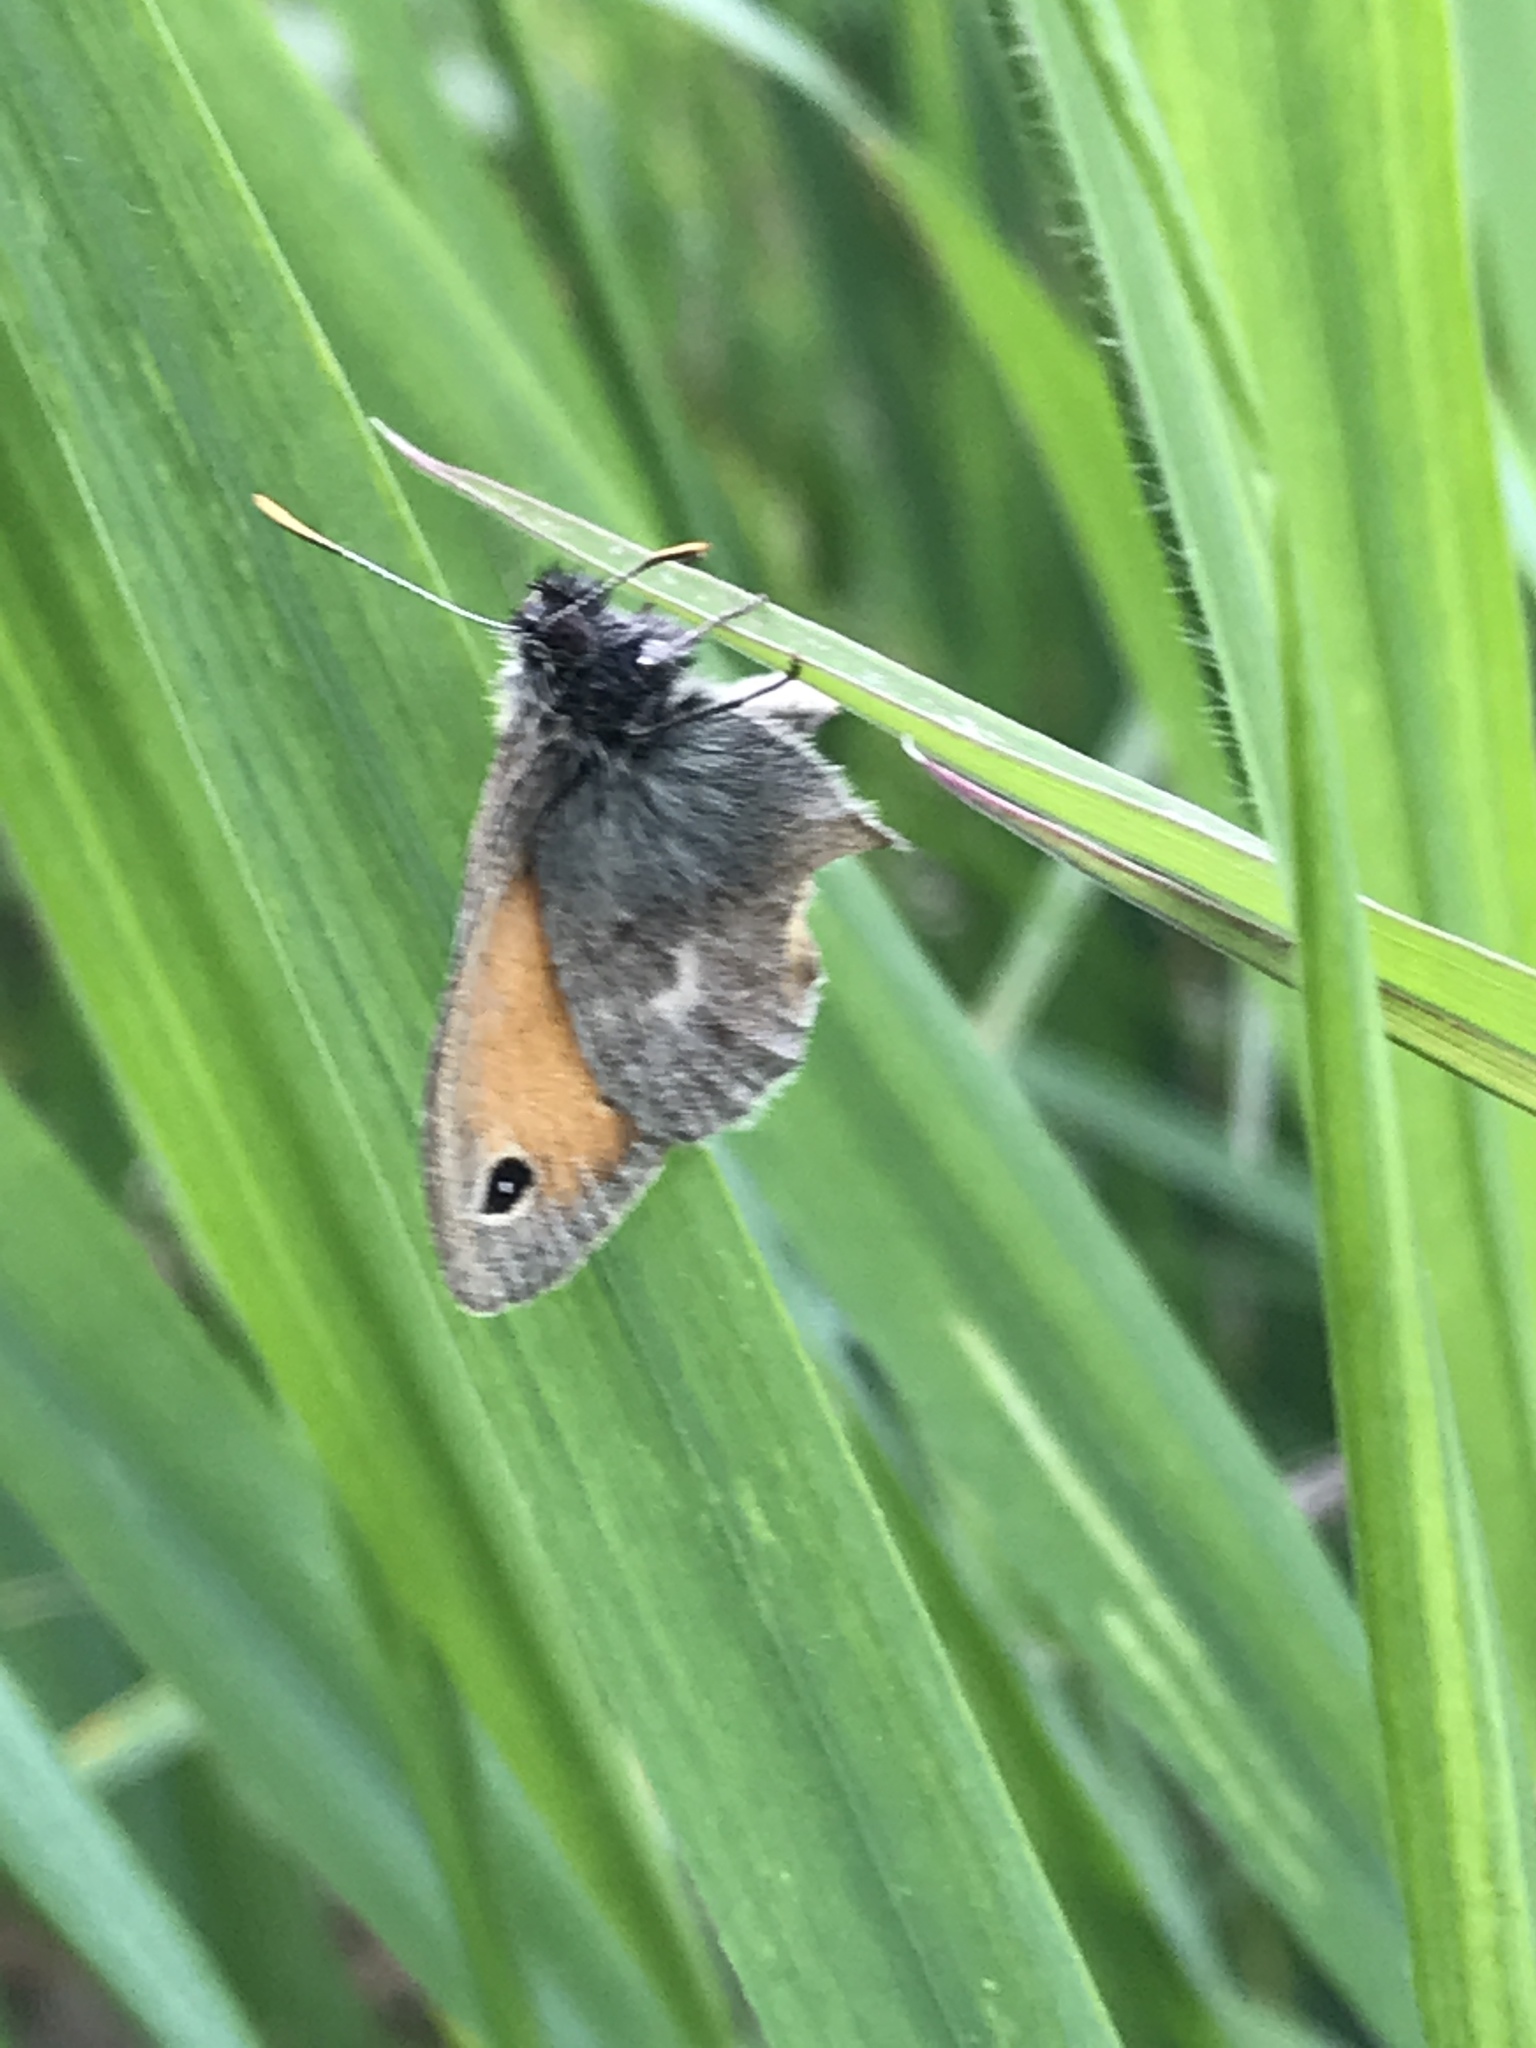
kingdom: Animalia
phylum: Arthropoda
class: Insecta
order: Lepidoptera
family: Nymphalidae
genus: Coenonympha
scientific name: Coenonympha pamphilus
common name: Small heath
